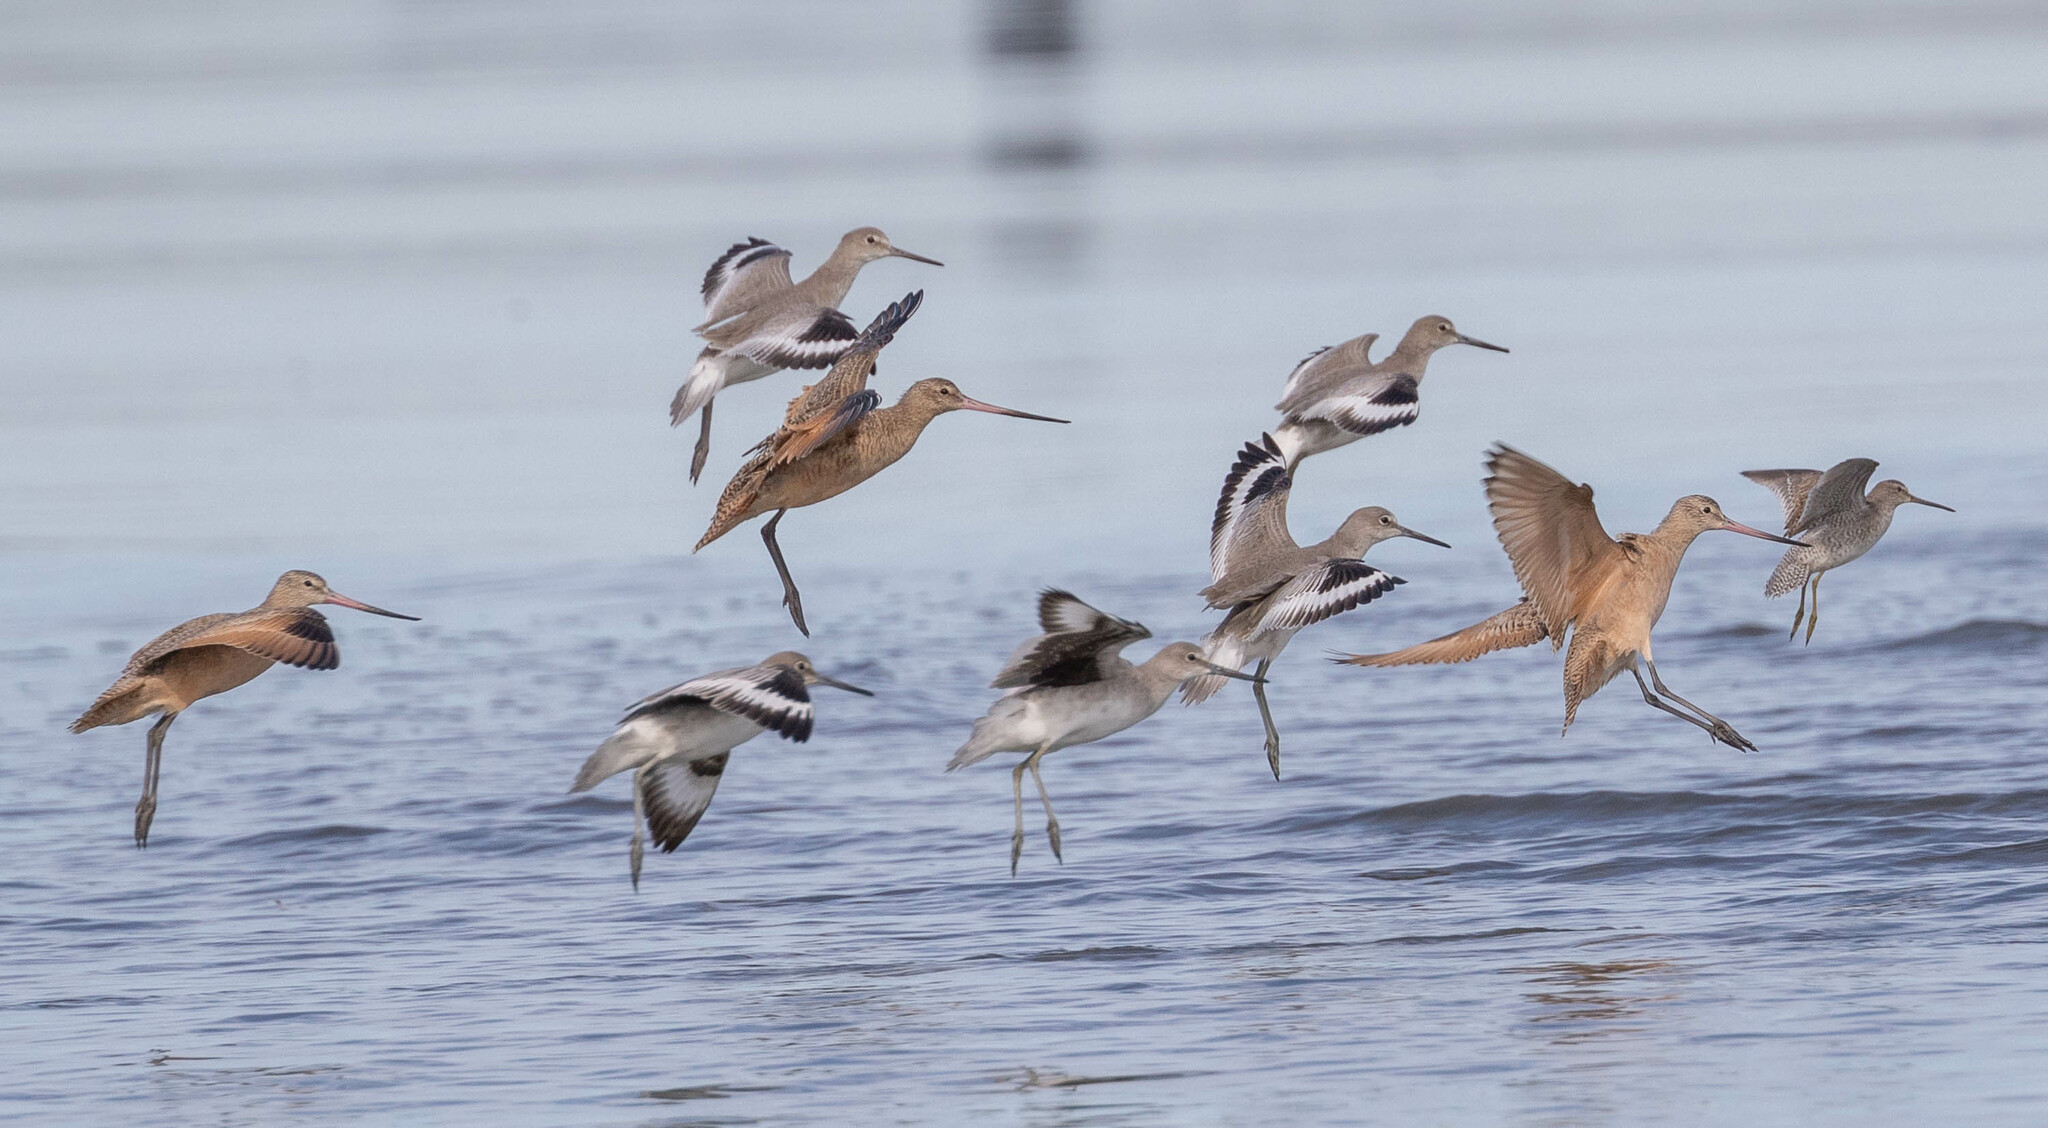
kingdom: Animalia
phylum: Chordata
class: Aves
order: Charadriiformes
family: Scolopacidae
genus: Limosa
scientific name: Limosa fedoa
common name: Marbled godwit
